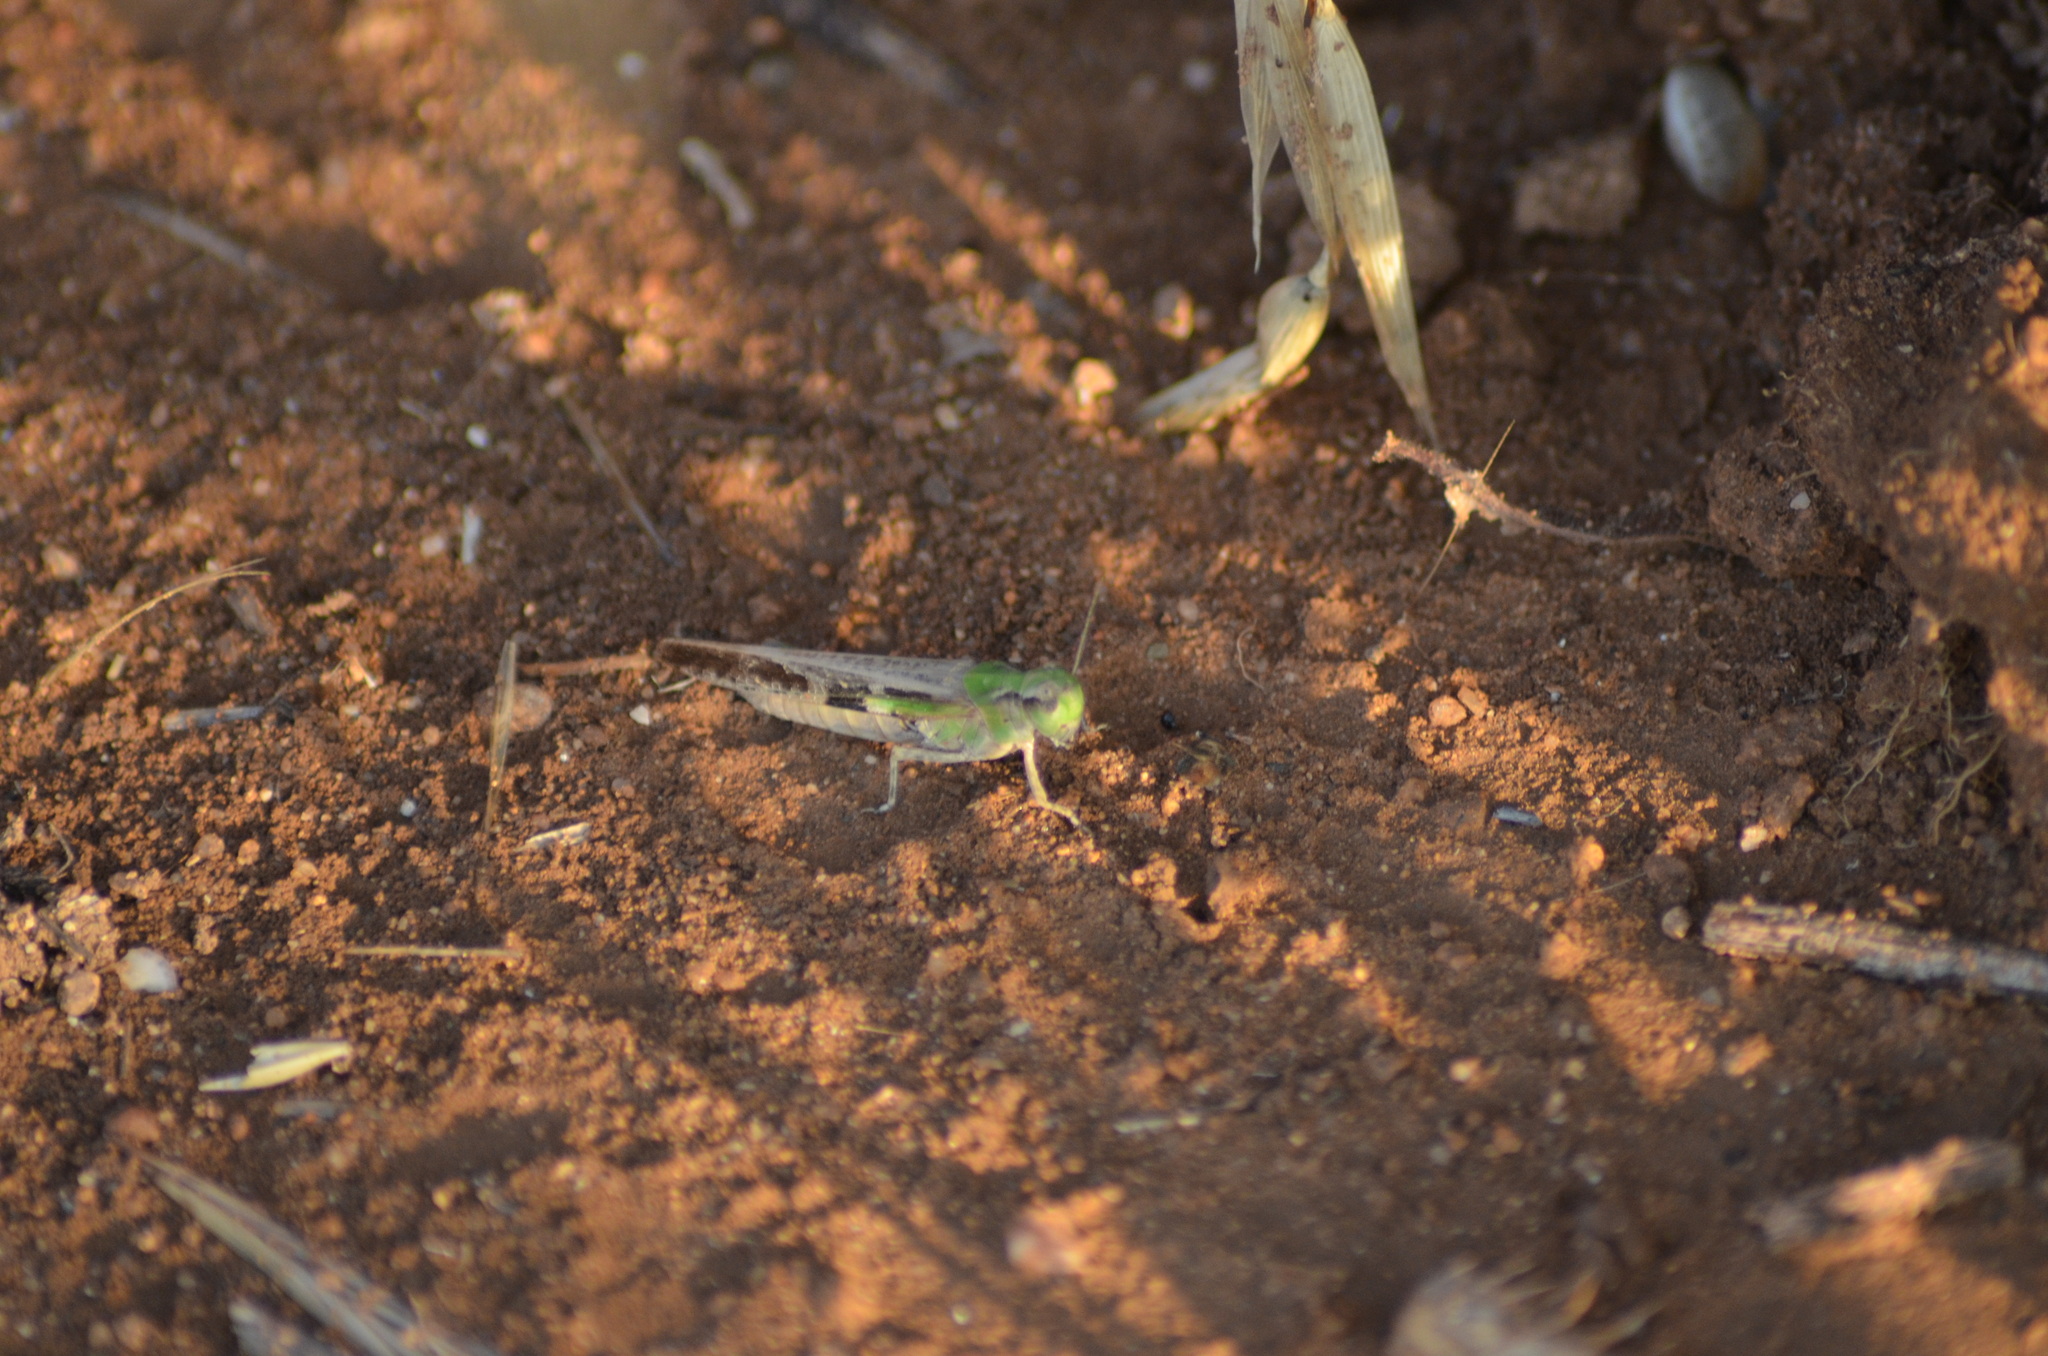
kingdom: Animalia
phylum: Arthropoda
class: Insecta
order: Orthoptera
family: Acrididae
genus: Aiolopus
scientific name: Aiolopus puissanti
